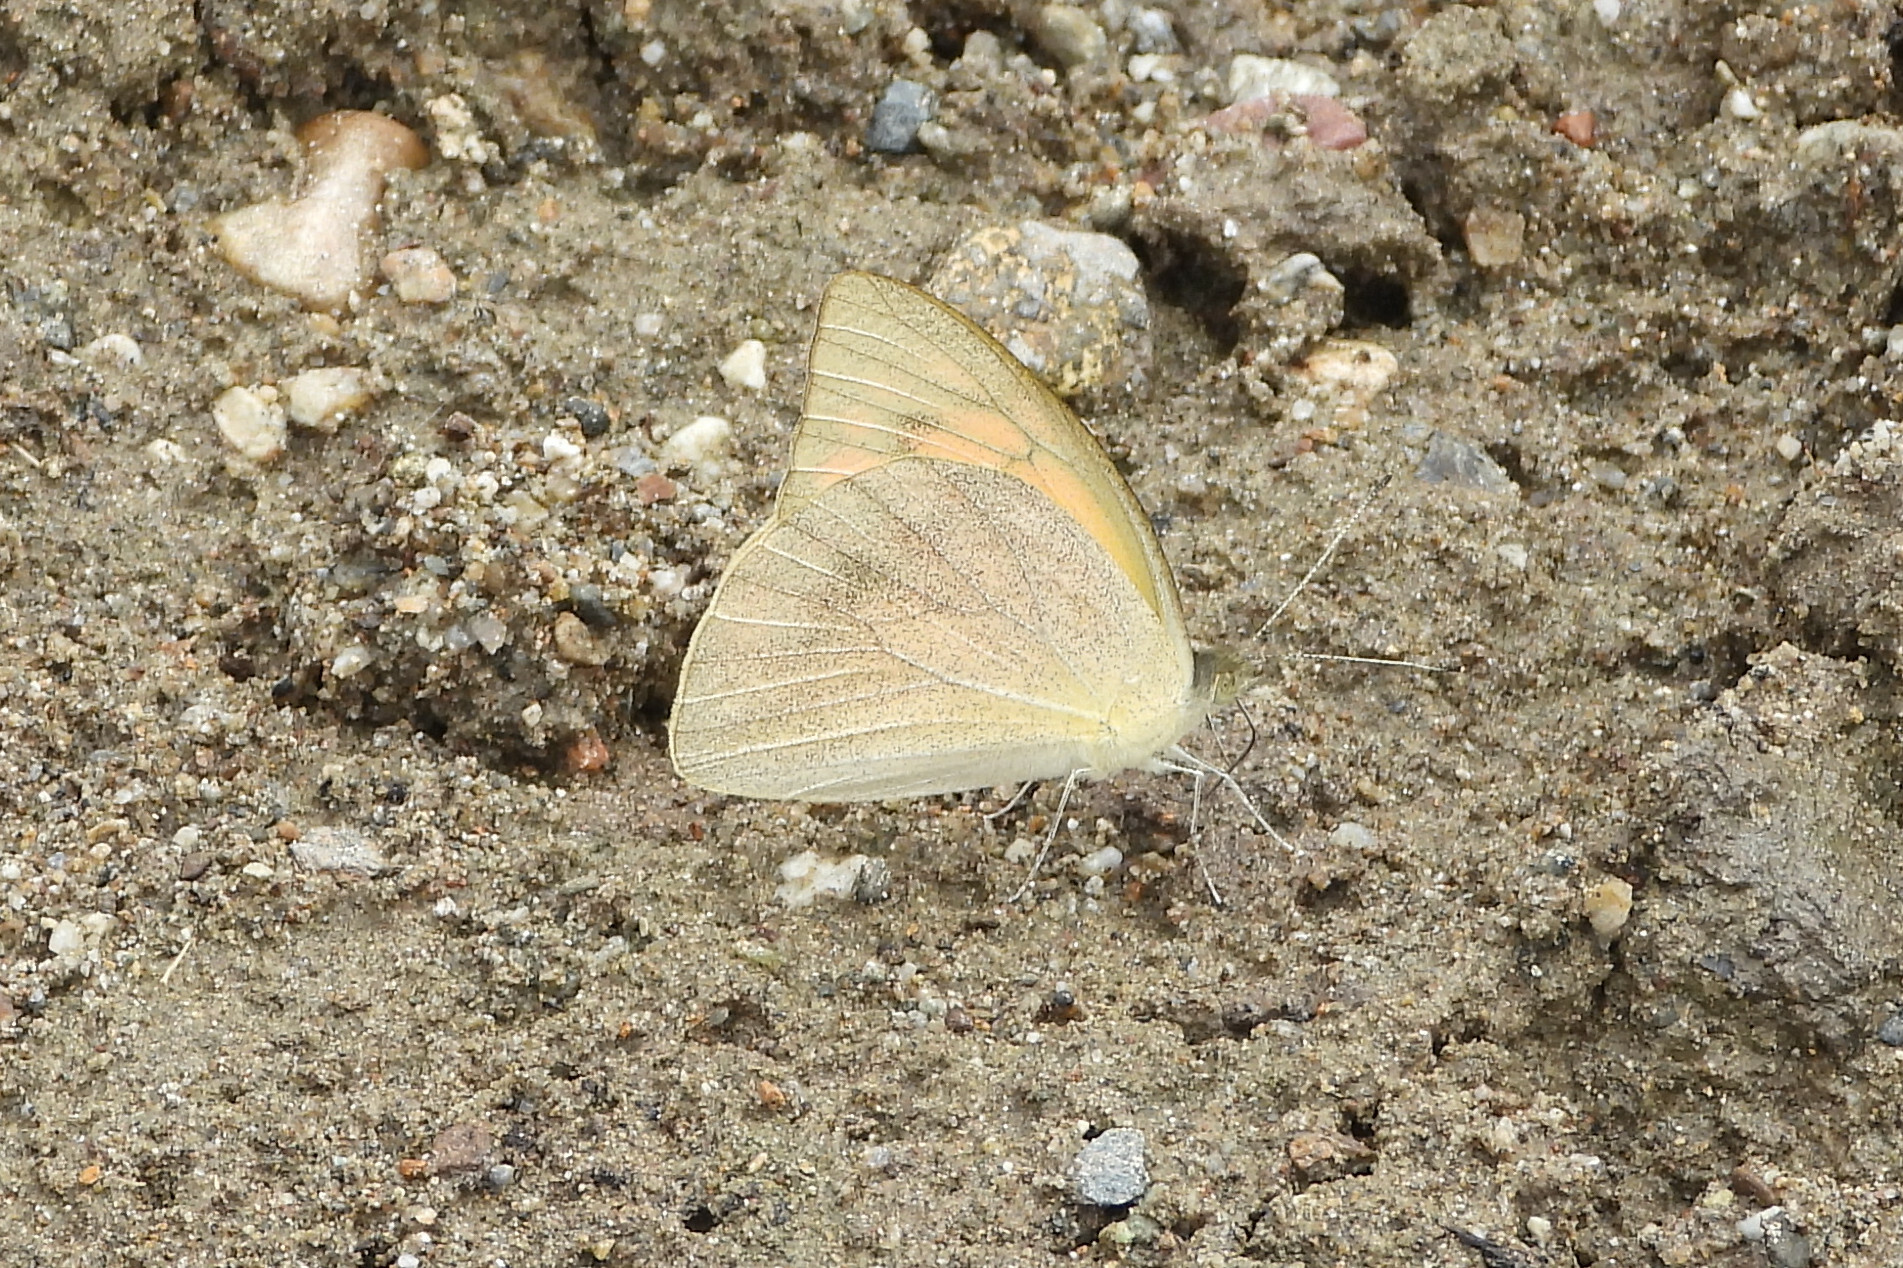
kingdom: Animalia
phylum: Arthropoda
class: Insecta
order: Lepidoptera
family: Pieridae
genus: Appias
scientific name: Appias galba
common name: Indian orange albatross
